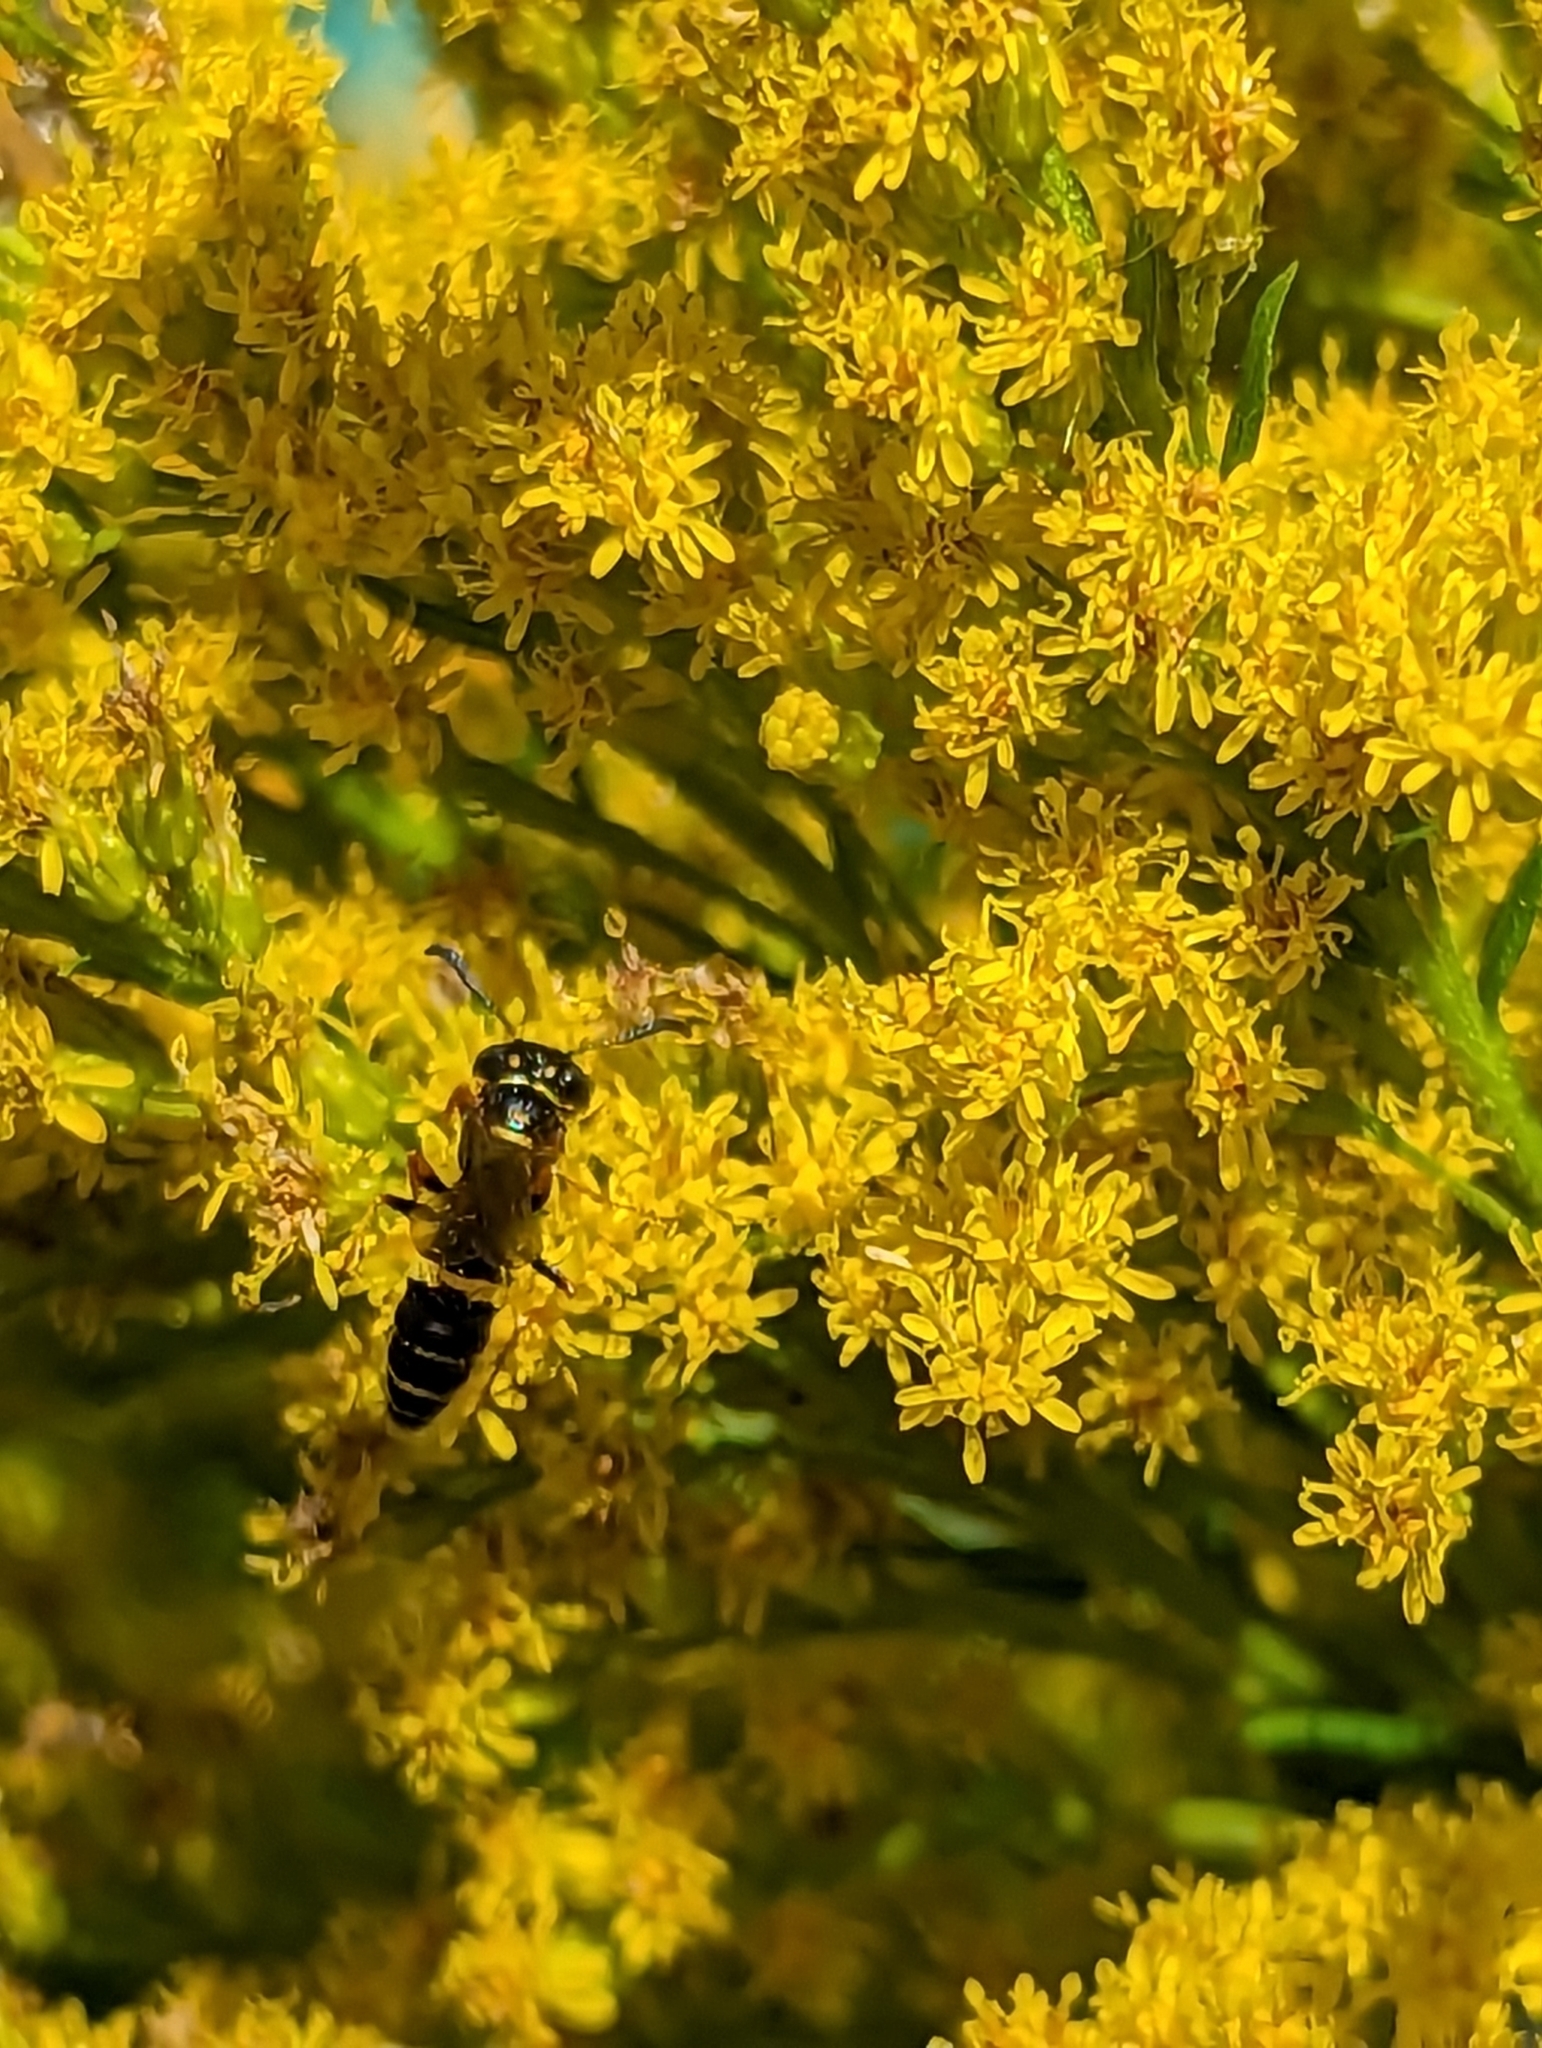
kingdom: Animalia
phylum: Arthropoda
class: Insecta
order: Hymenoptera
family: Crabronidae
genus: Philanthus
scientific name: Philanthus gibbosus
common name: Humped beewolf
